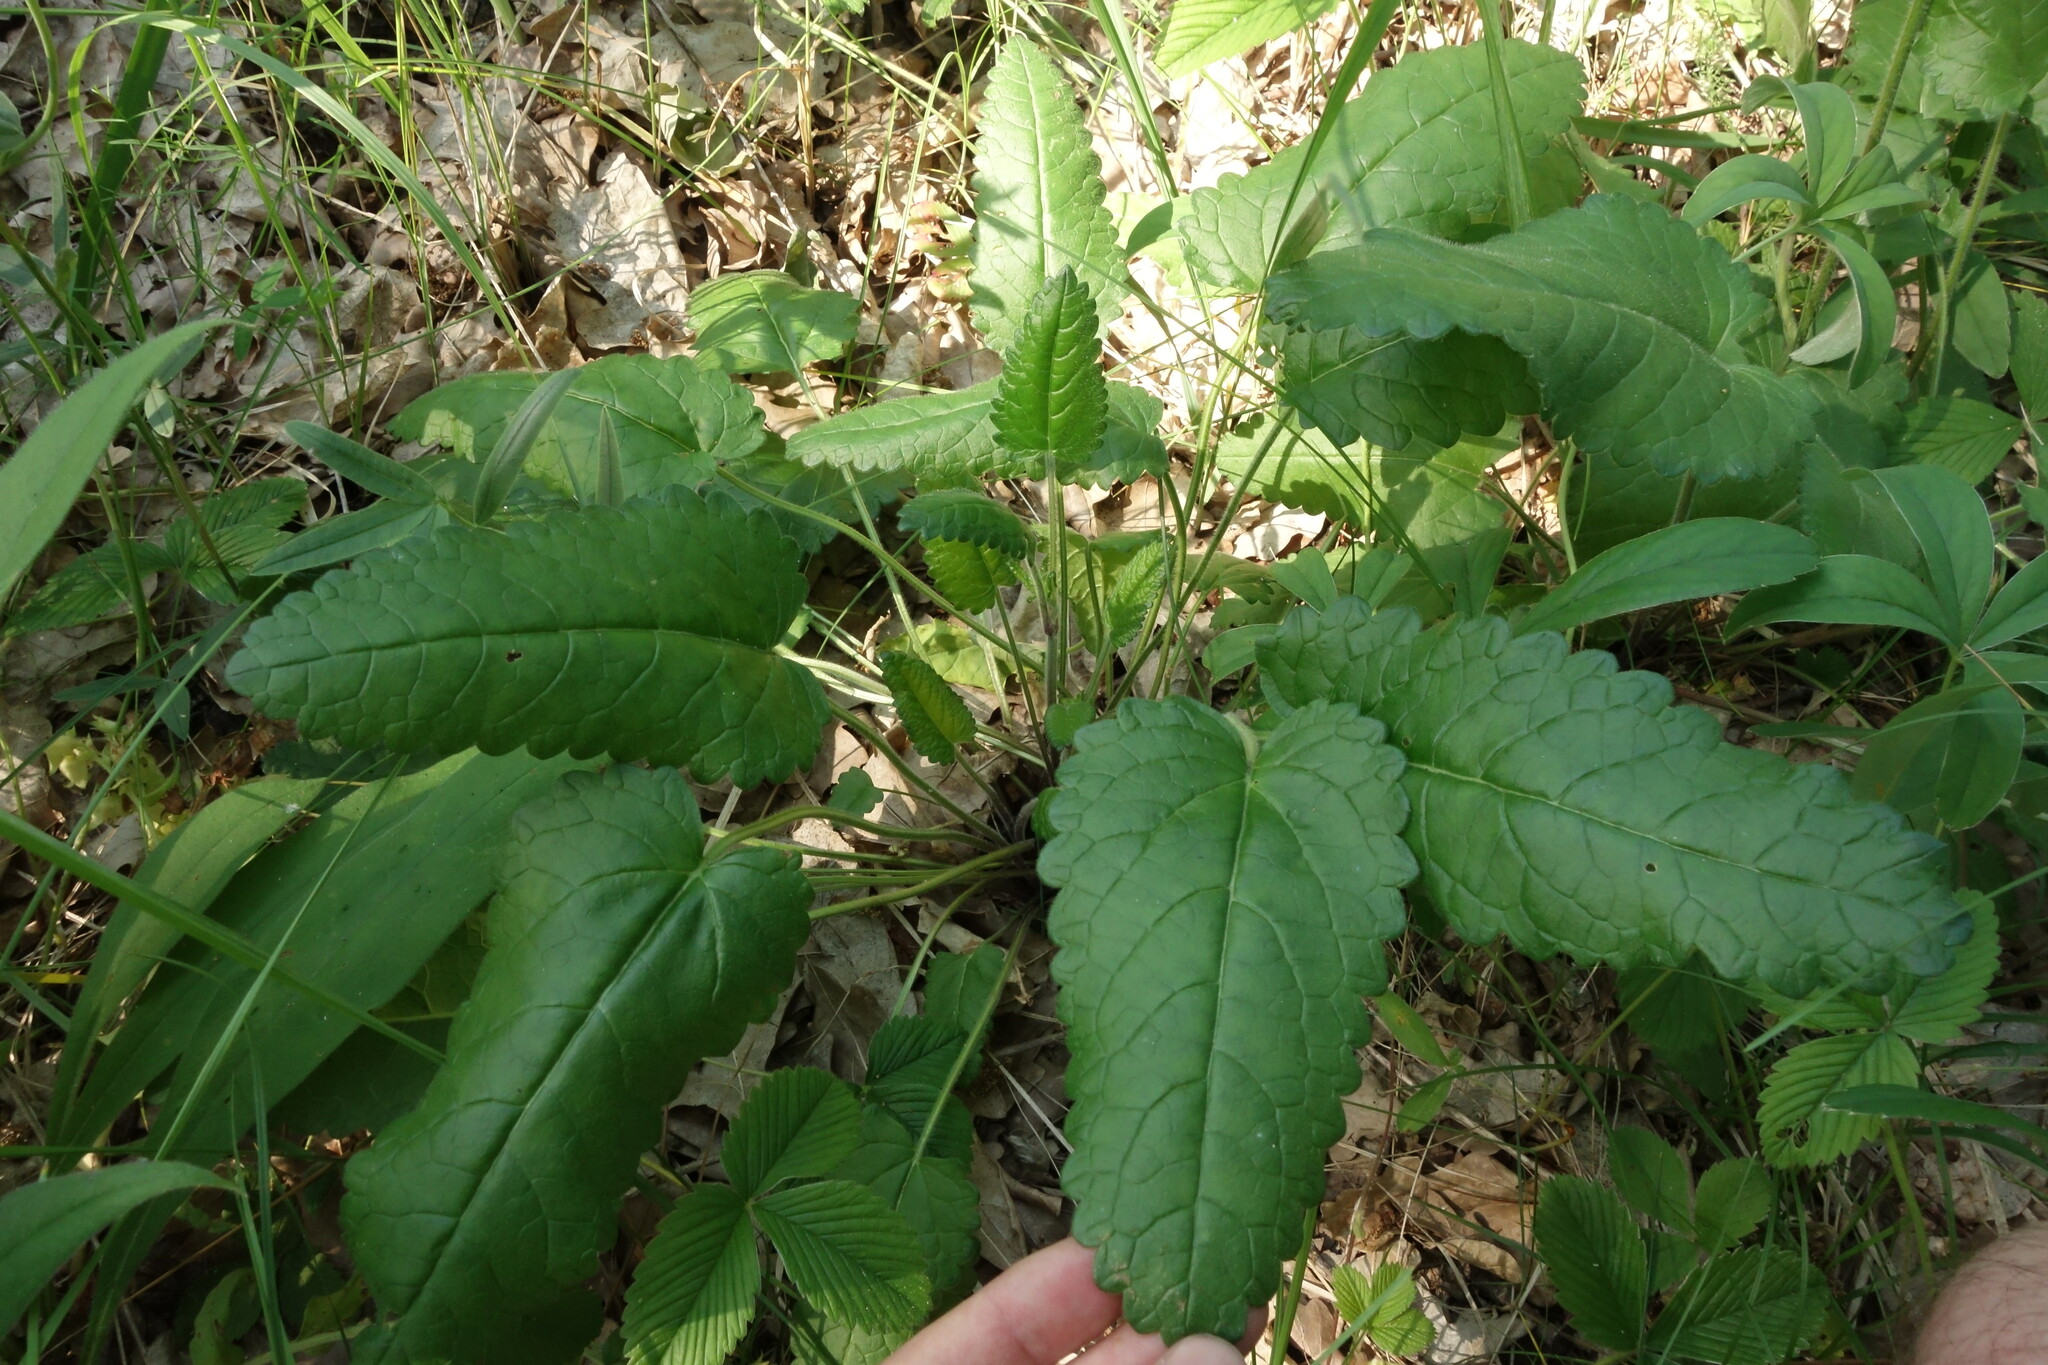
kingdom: Plantae
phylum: Tracheophyta
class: Magnoliopsida
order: Lamiales
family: Lamiaceae
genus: Betonica
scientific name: Betonica officinalis
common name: Bishop's-wort
